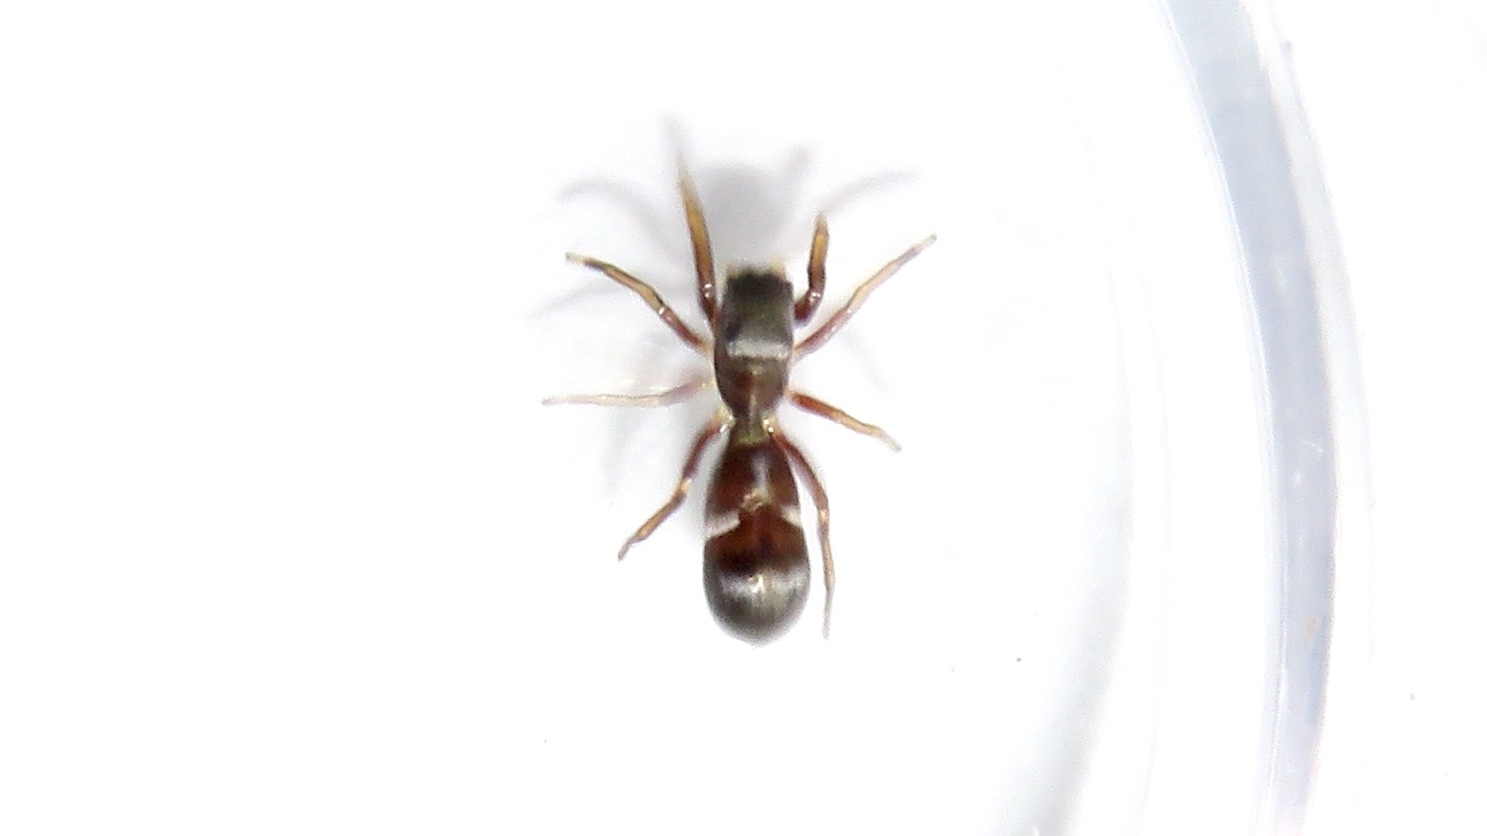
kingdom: Animalia
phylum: Arthropoda
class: Arachnida
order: Araneae
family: Salticidae
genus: Synageles
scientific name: Synageles venator
